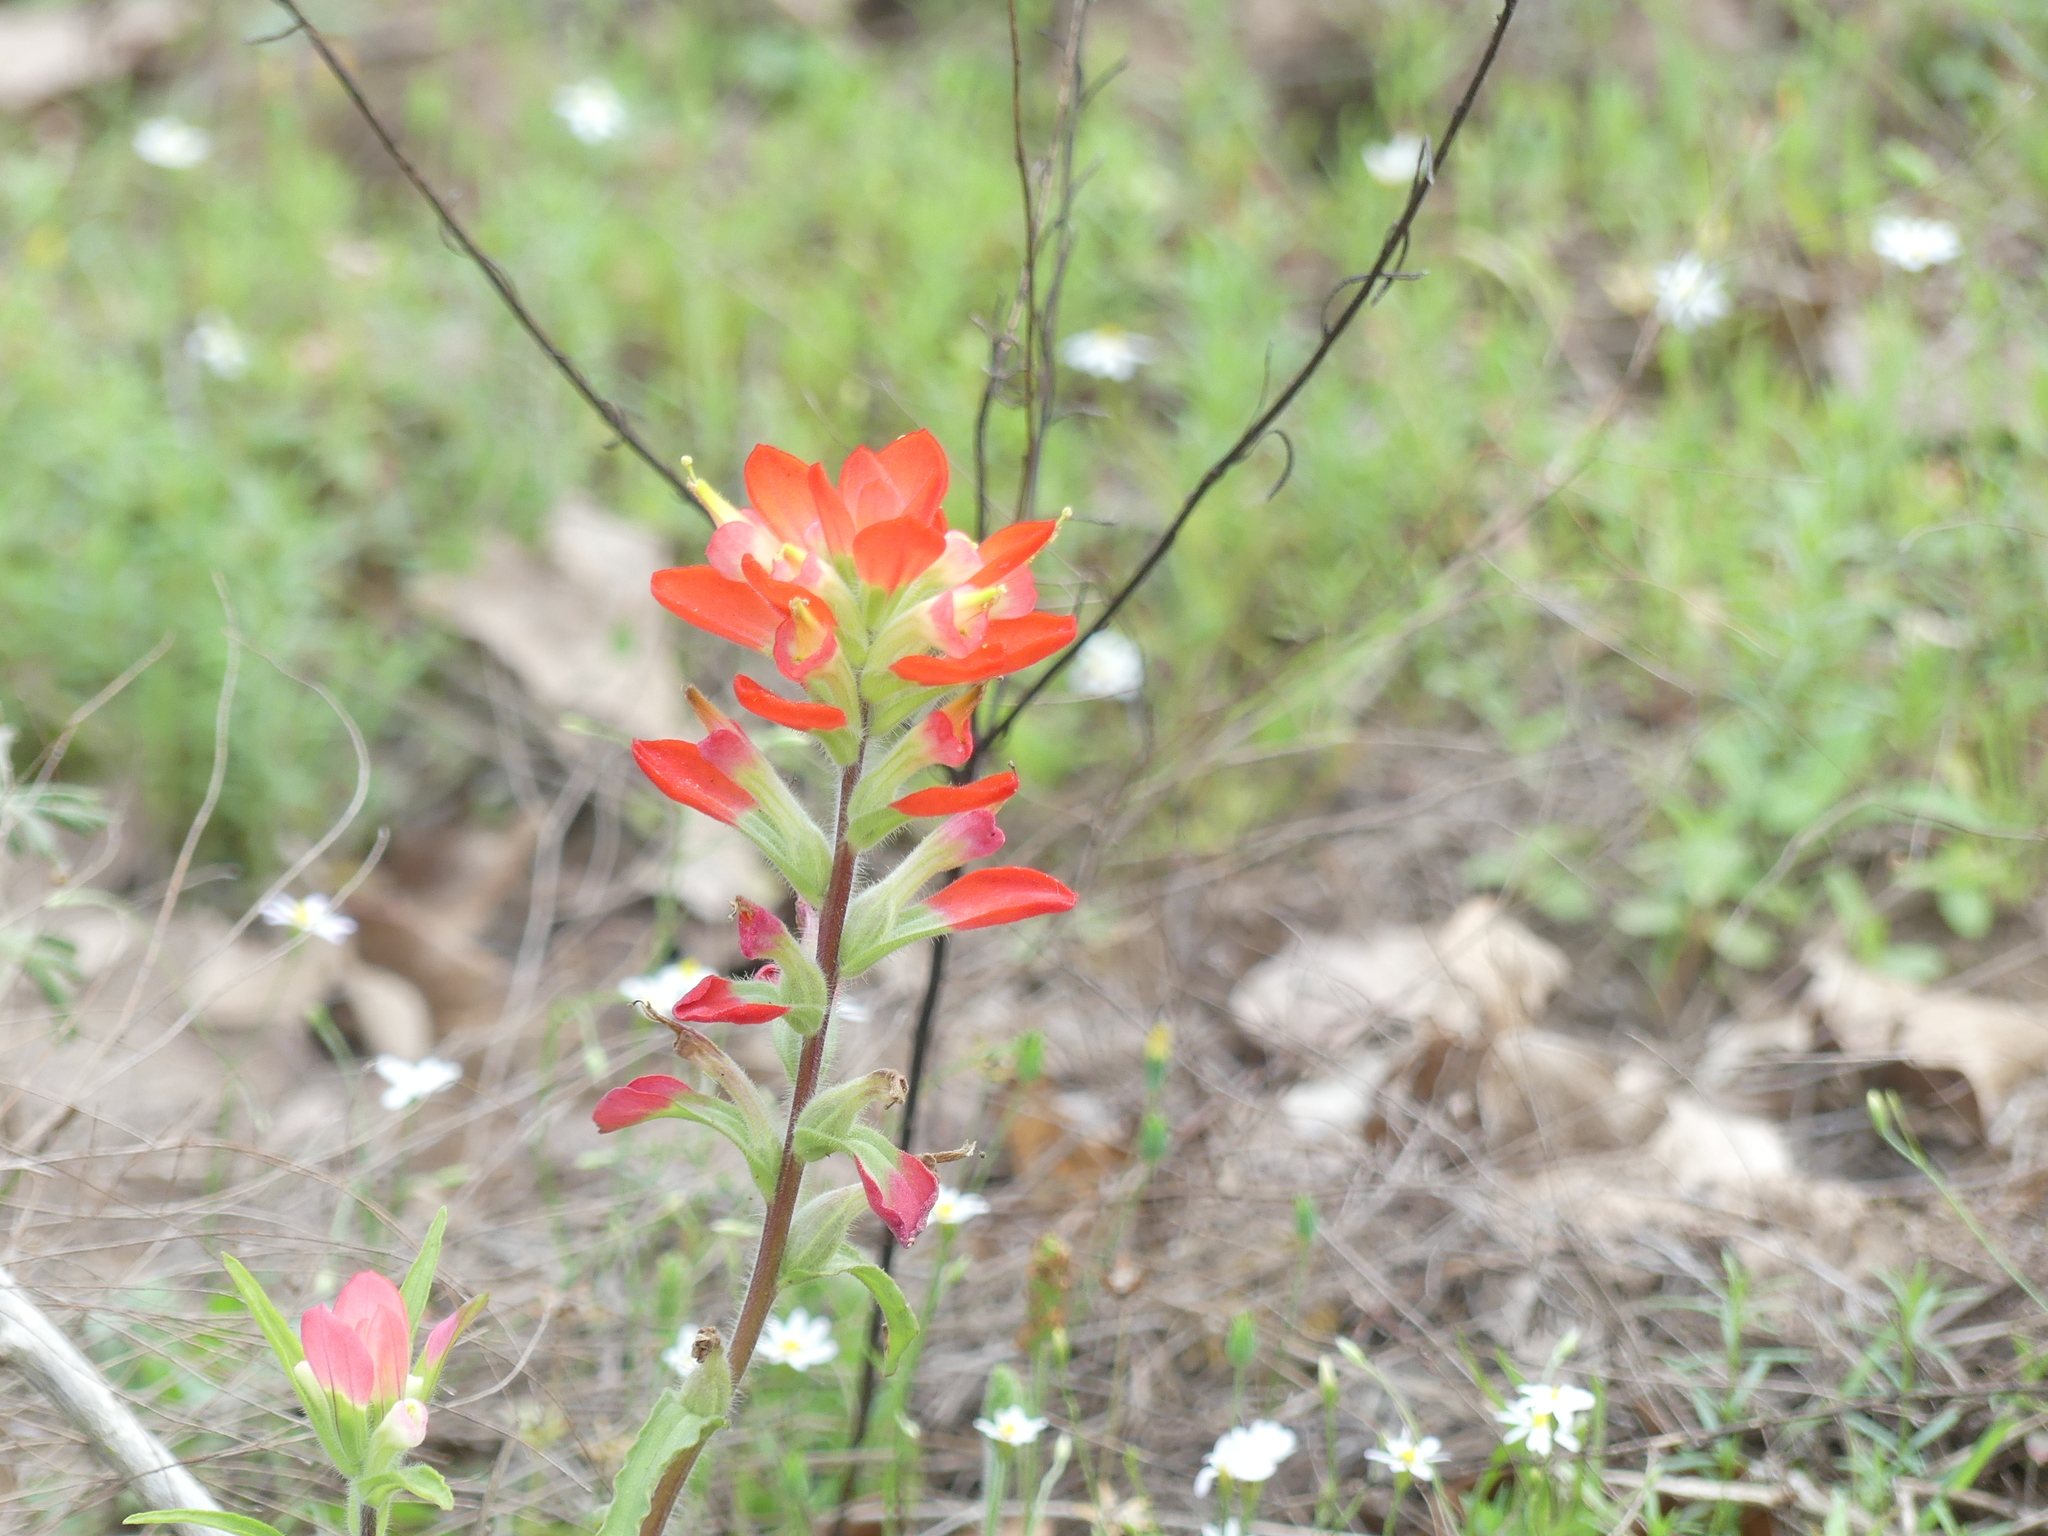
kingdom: Plantae
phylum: Tracheophyta
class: Magnoliopsida
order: Lamiales
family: Orobanchaceae
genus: Castilleja
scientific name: Castilleja indivisa
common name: Texas paintbrush
